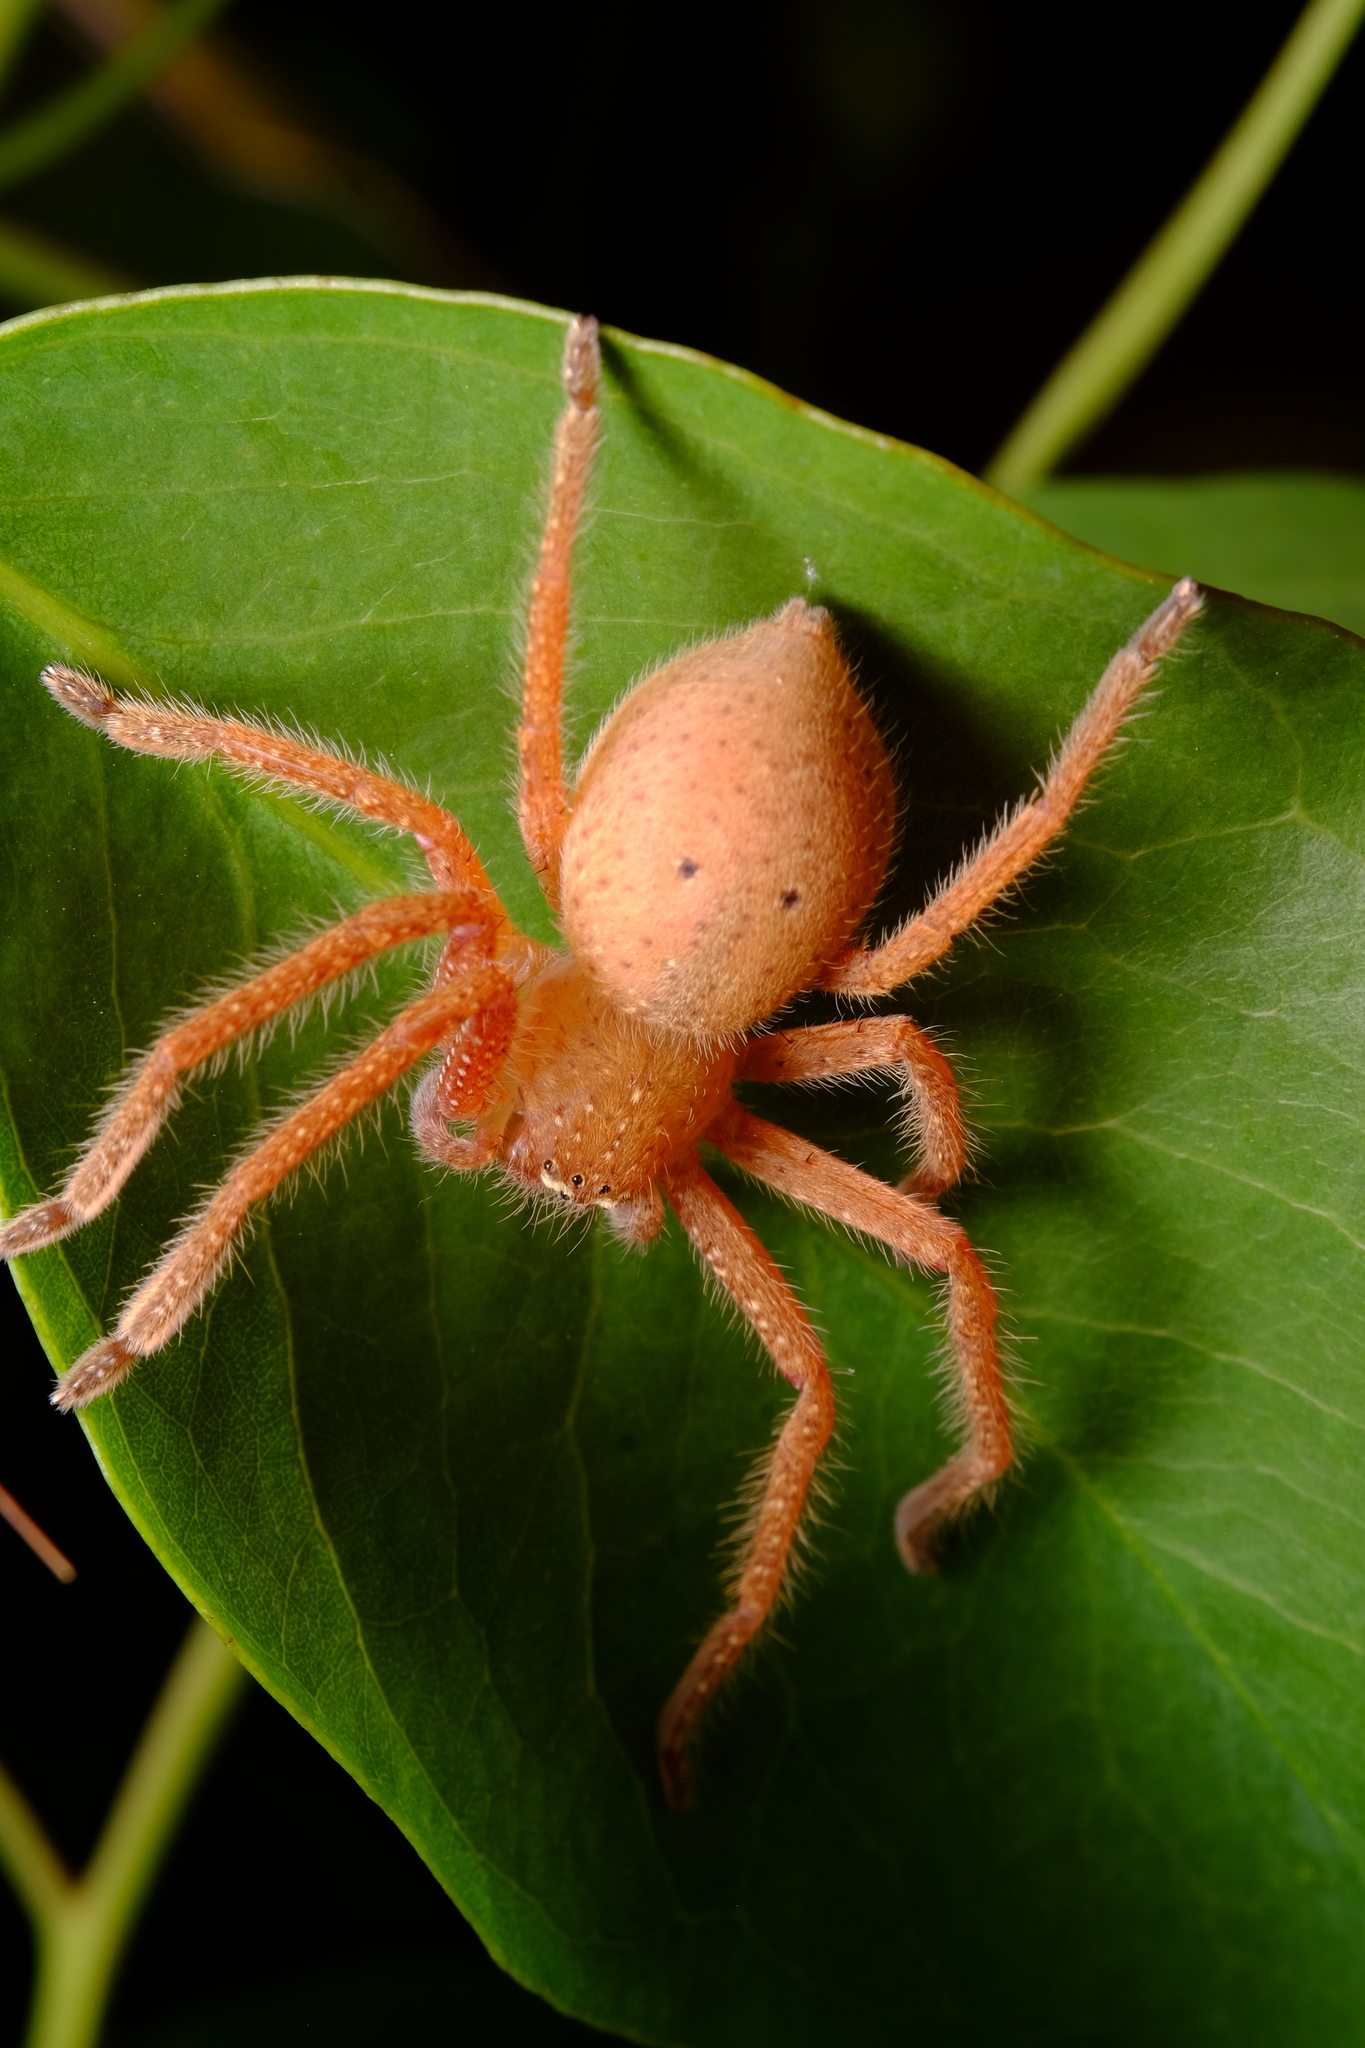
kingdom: Animalia
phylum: Arthropoda
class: Arachnida
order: Araneae
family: Sparassidae
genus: Neosparassus
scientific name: Neosparassus diana
